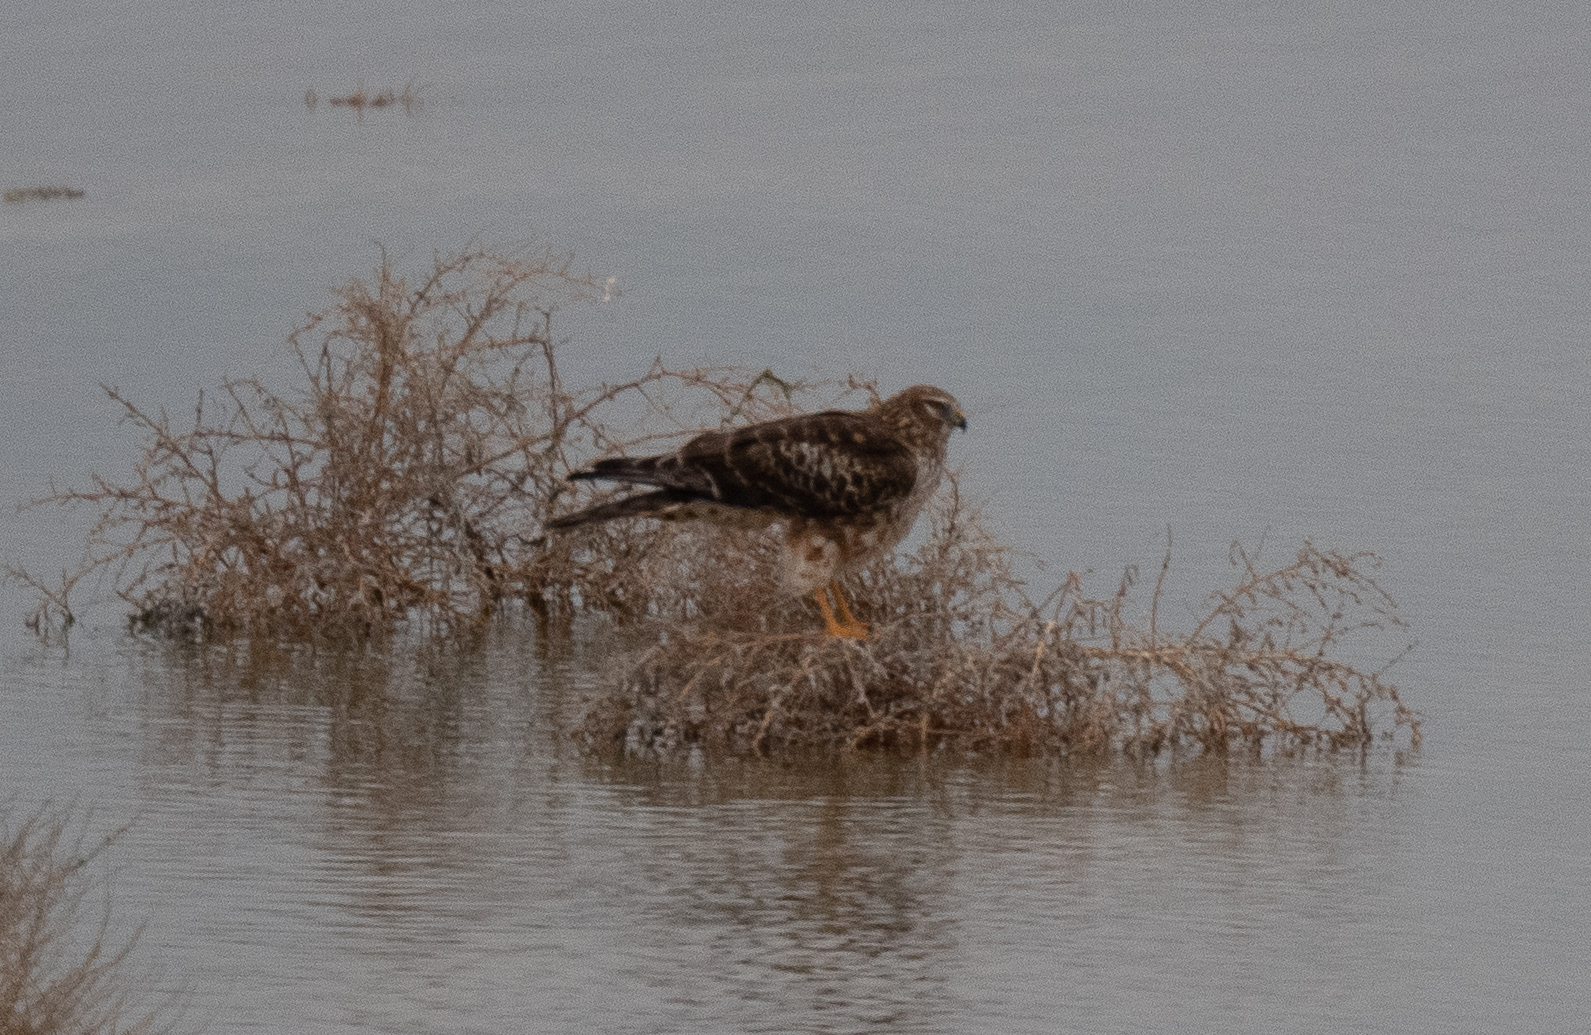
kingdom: Animalia
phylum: Chordata
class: Aves
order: Accipitriformes
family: Accipitridae
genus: Circus
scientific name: Circus cyaneus
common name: Hen harrier
